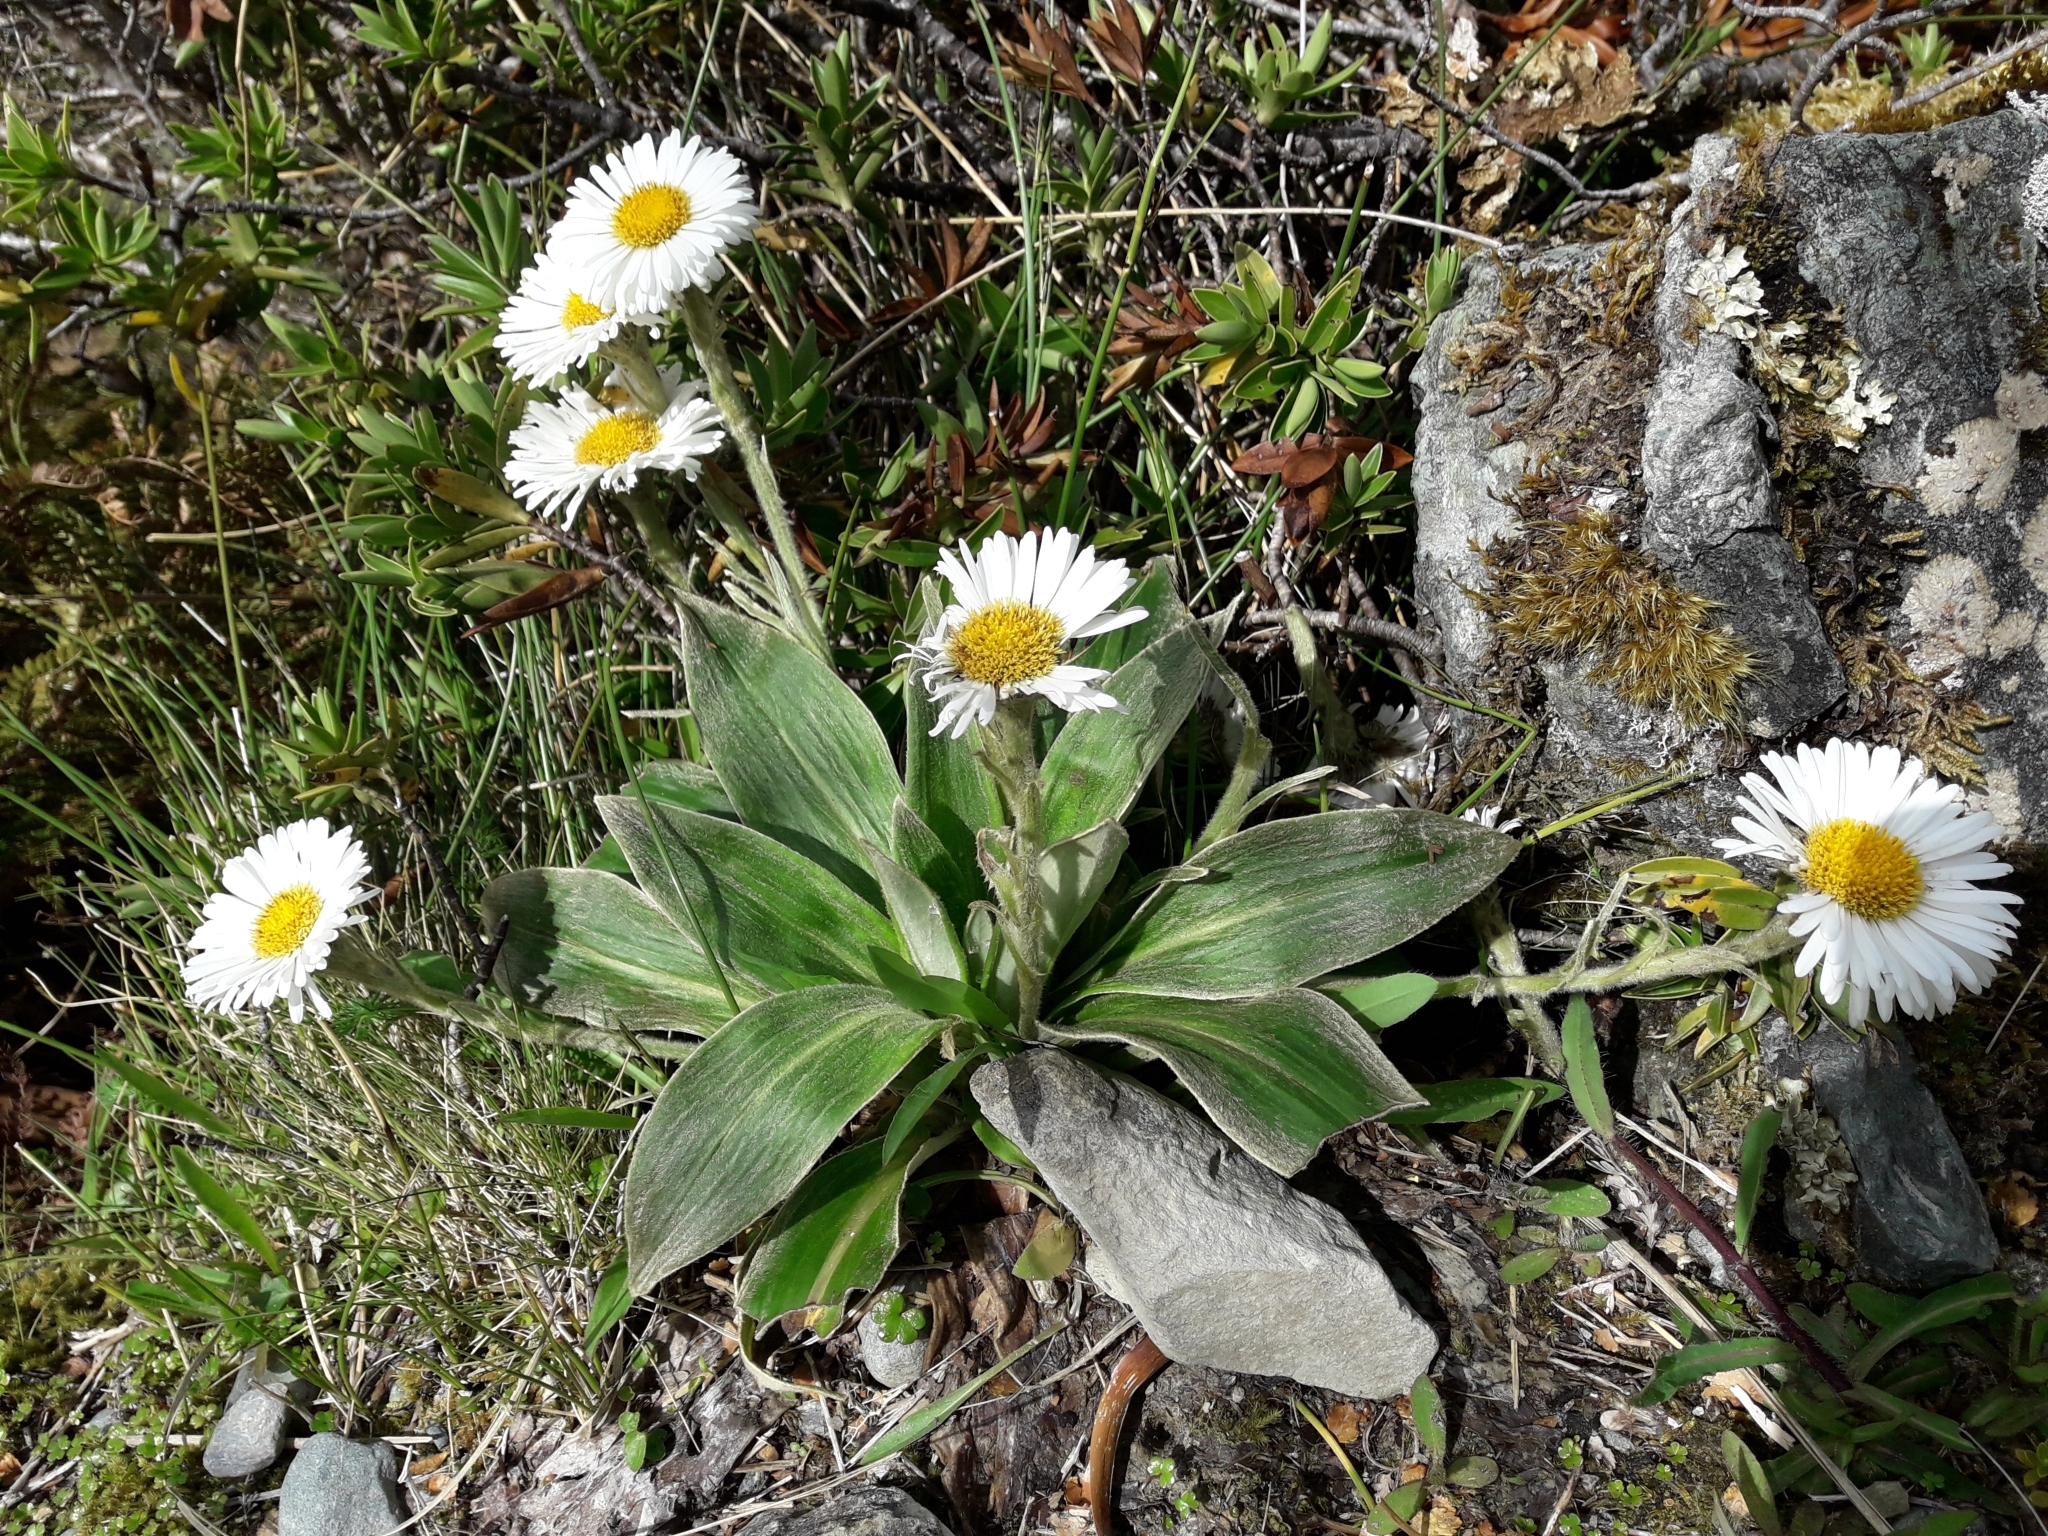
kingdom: Plantae
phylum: Tracheophyta
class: Magnoliopsida
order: Asterales
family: Asteraceae
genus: Celmisia
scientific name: Celmisia verbascifolia
